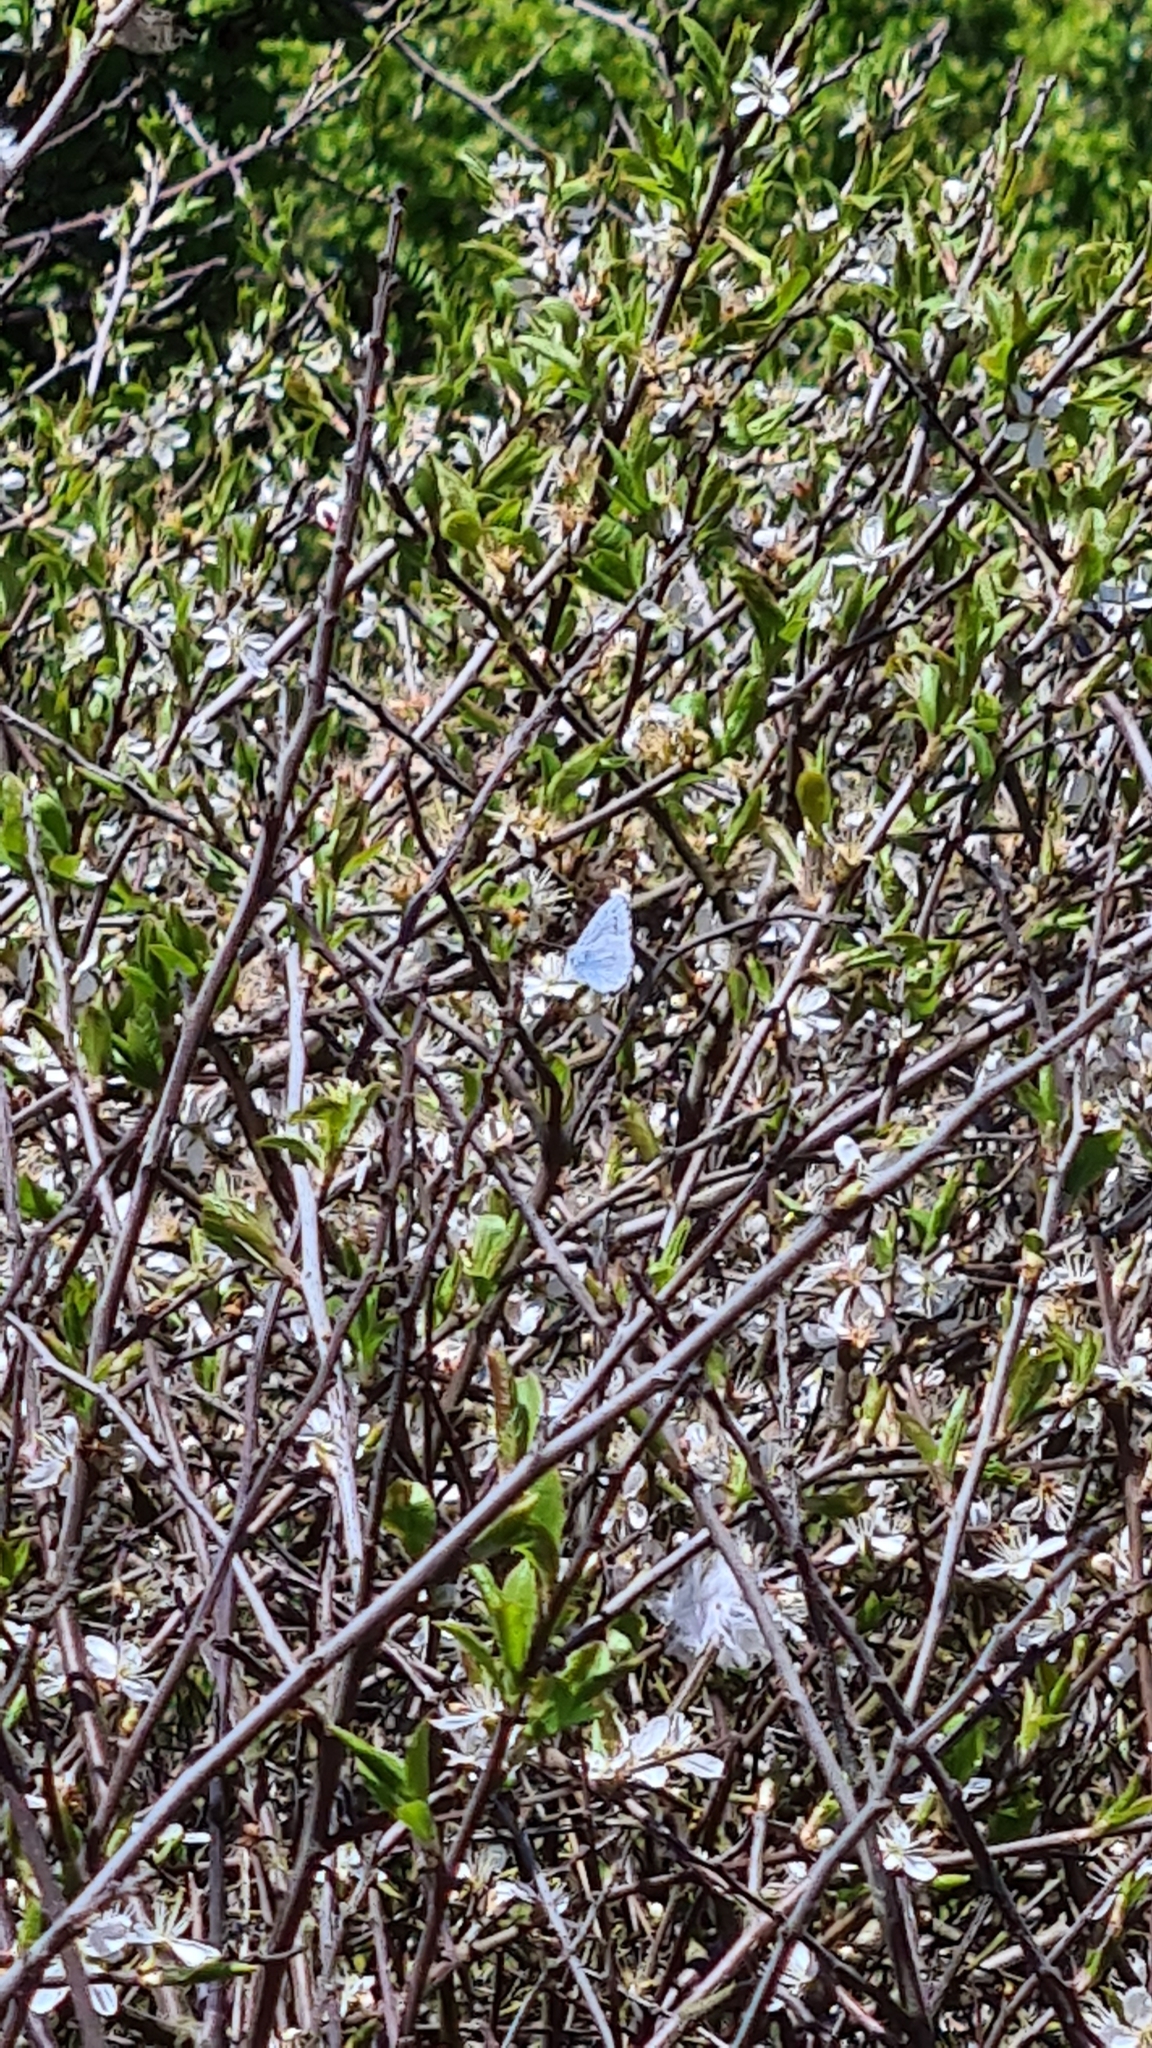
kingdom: Animalia
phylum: Arthropoda
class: Insecta
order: Lepidoptera
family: Lycaenidae
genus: Celastrina
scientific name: Celastrina argiolus
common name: Holly blue
